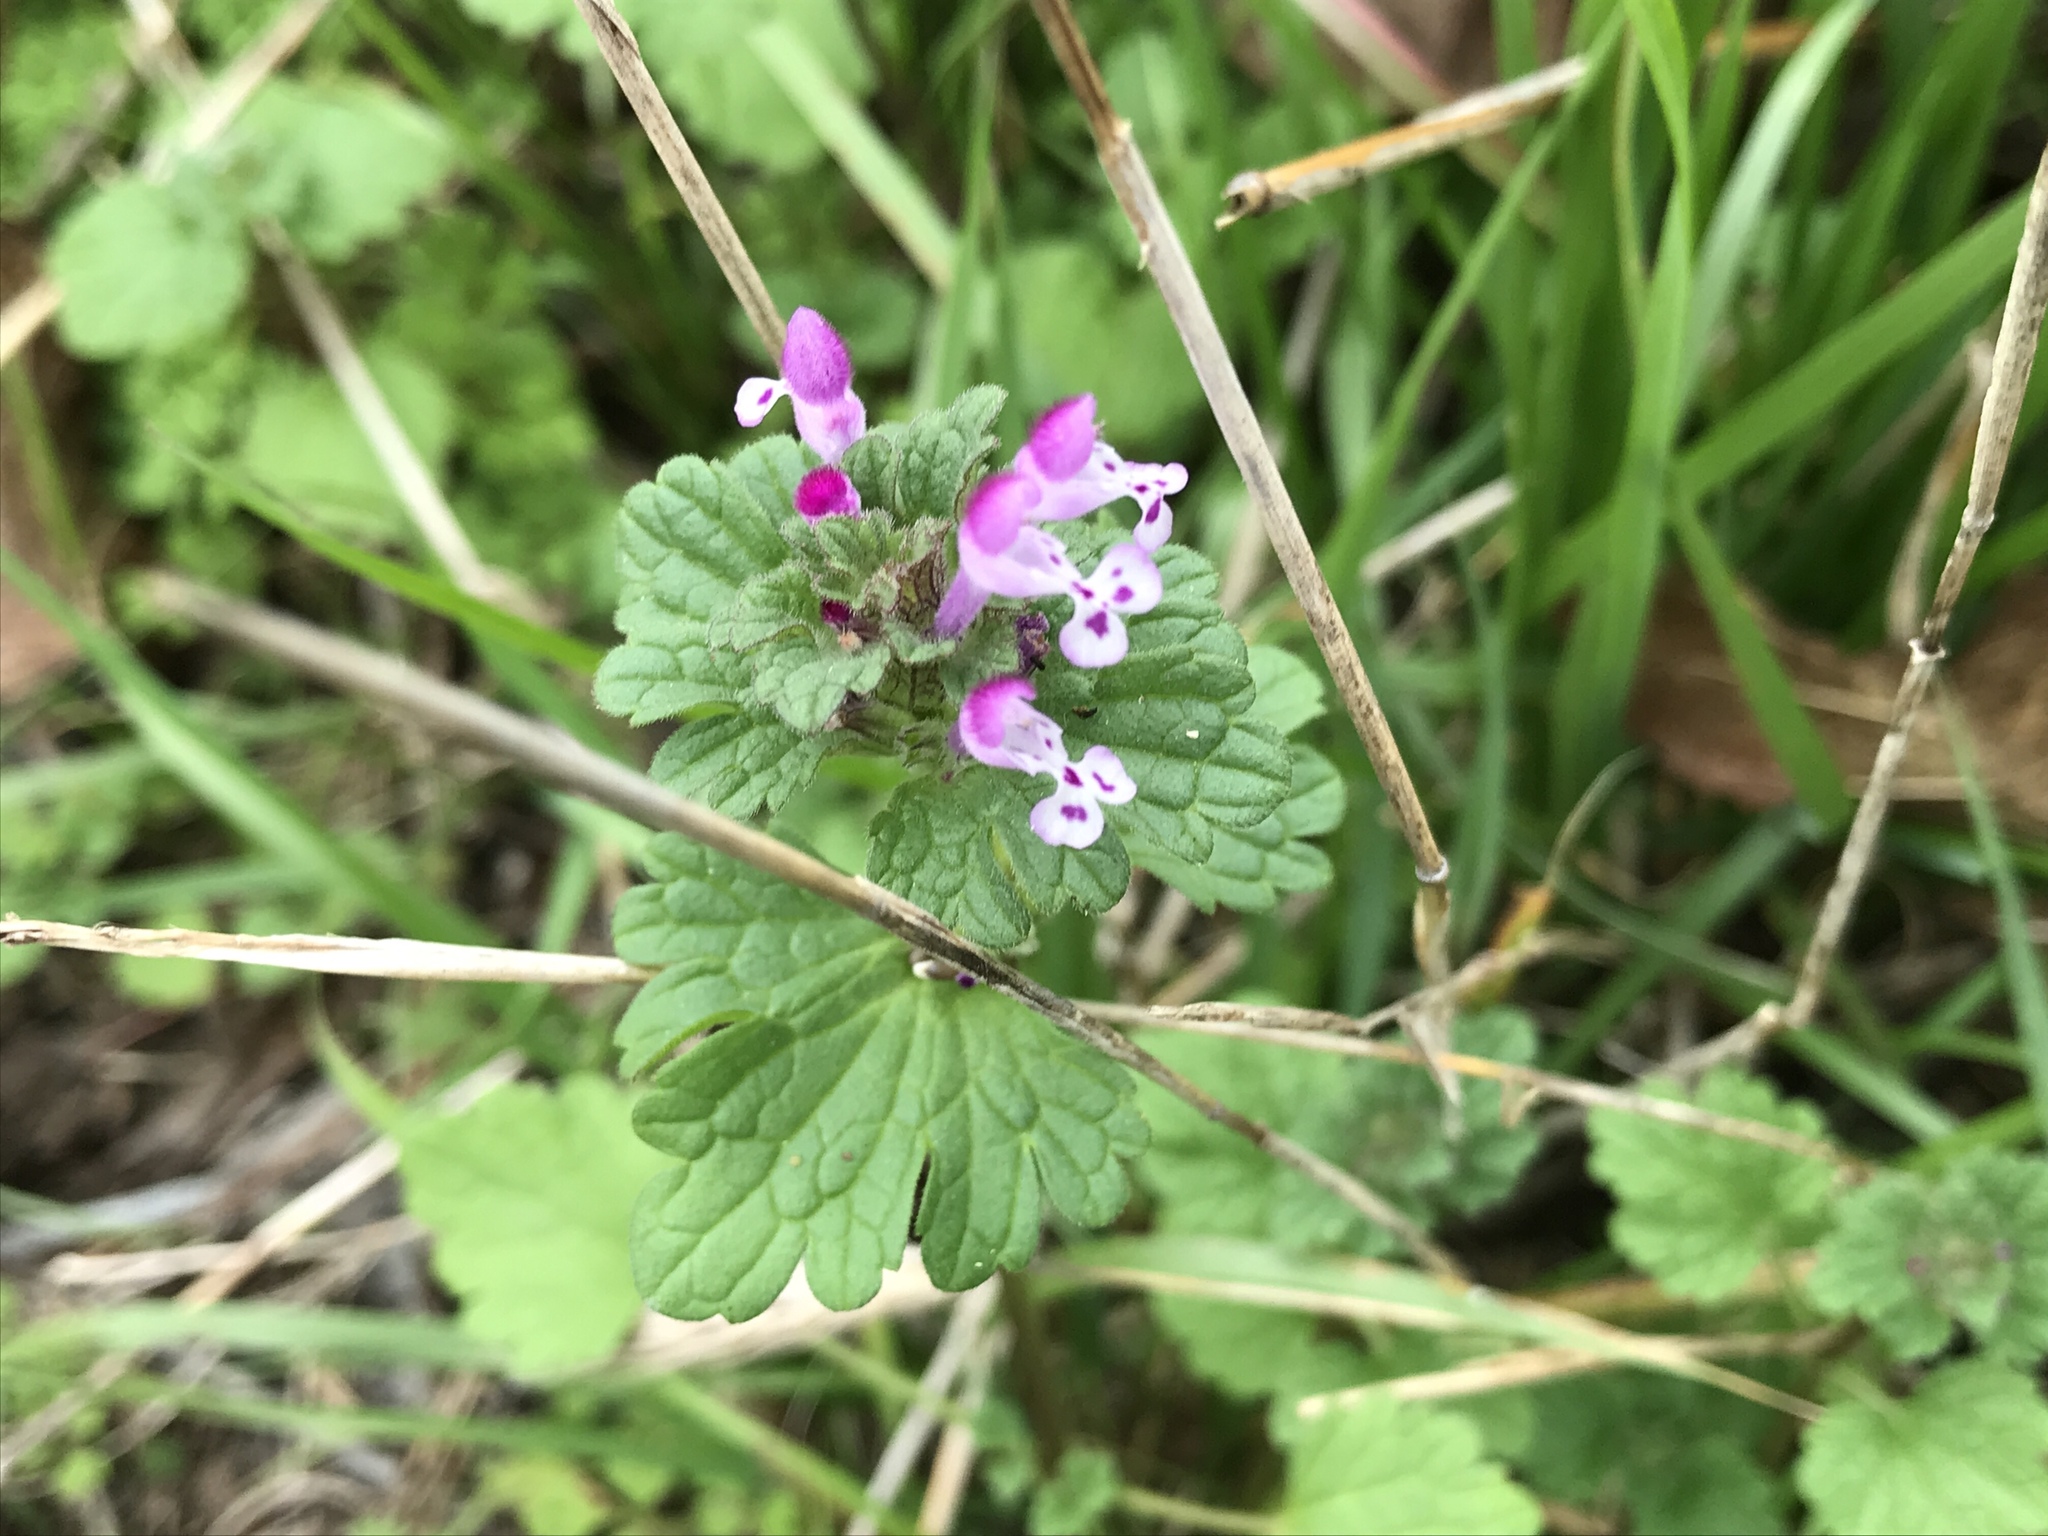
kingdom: Plantae
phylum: Tracheophyta
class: Magnoliopsida
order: Lamiales
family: Lamiaceae
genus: Lamium
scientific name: Lamium amplexicaule
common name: Henbit dead-nettle
